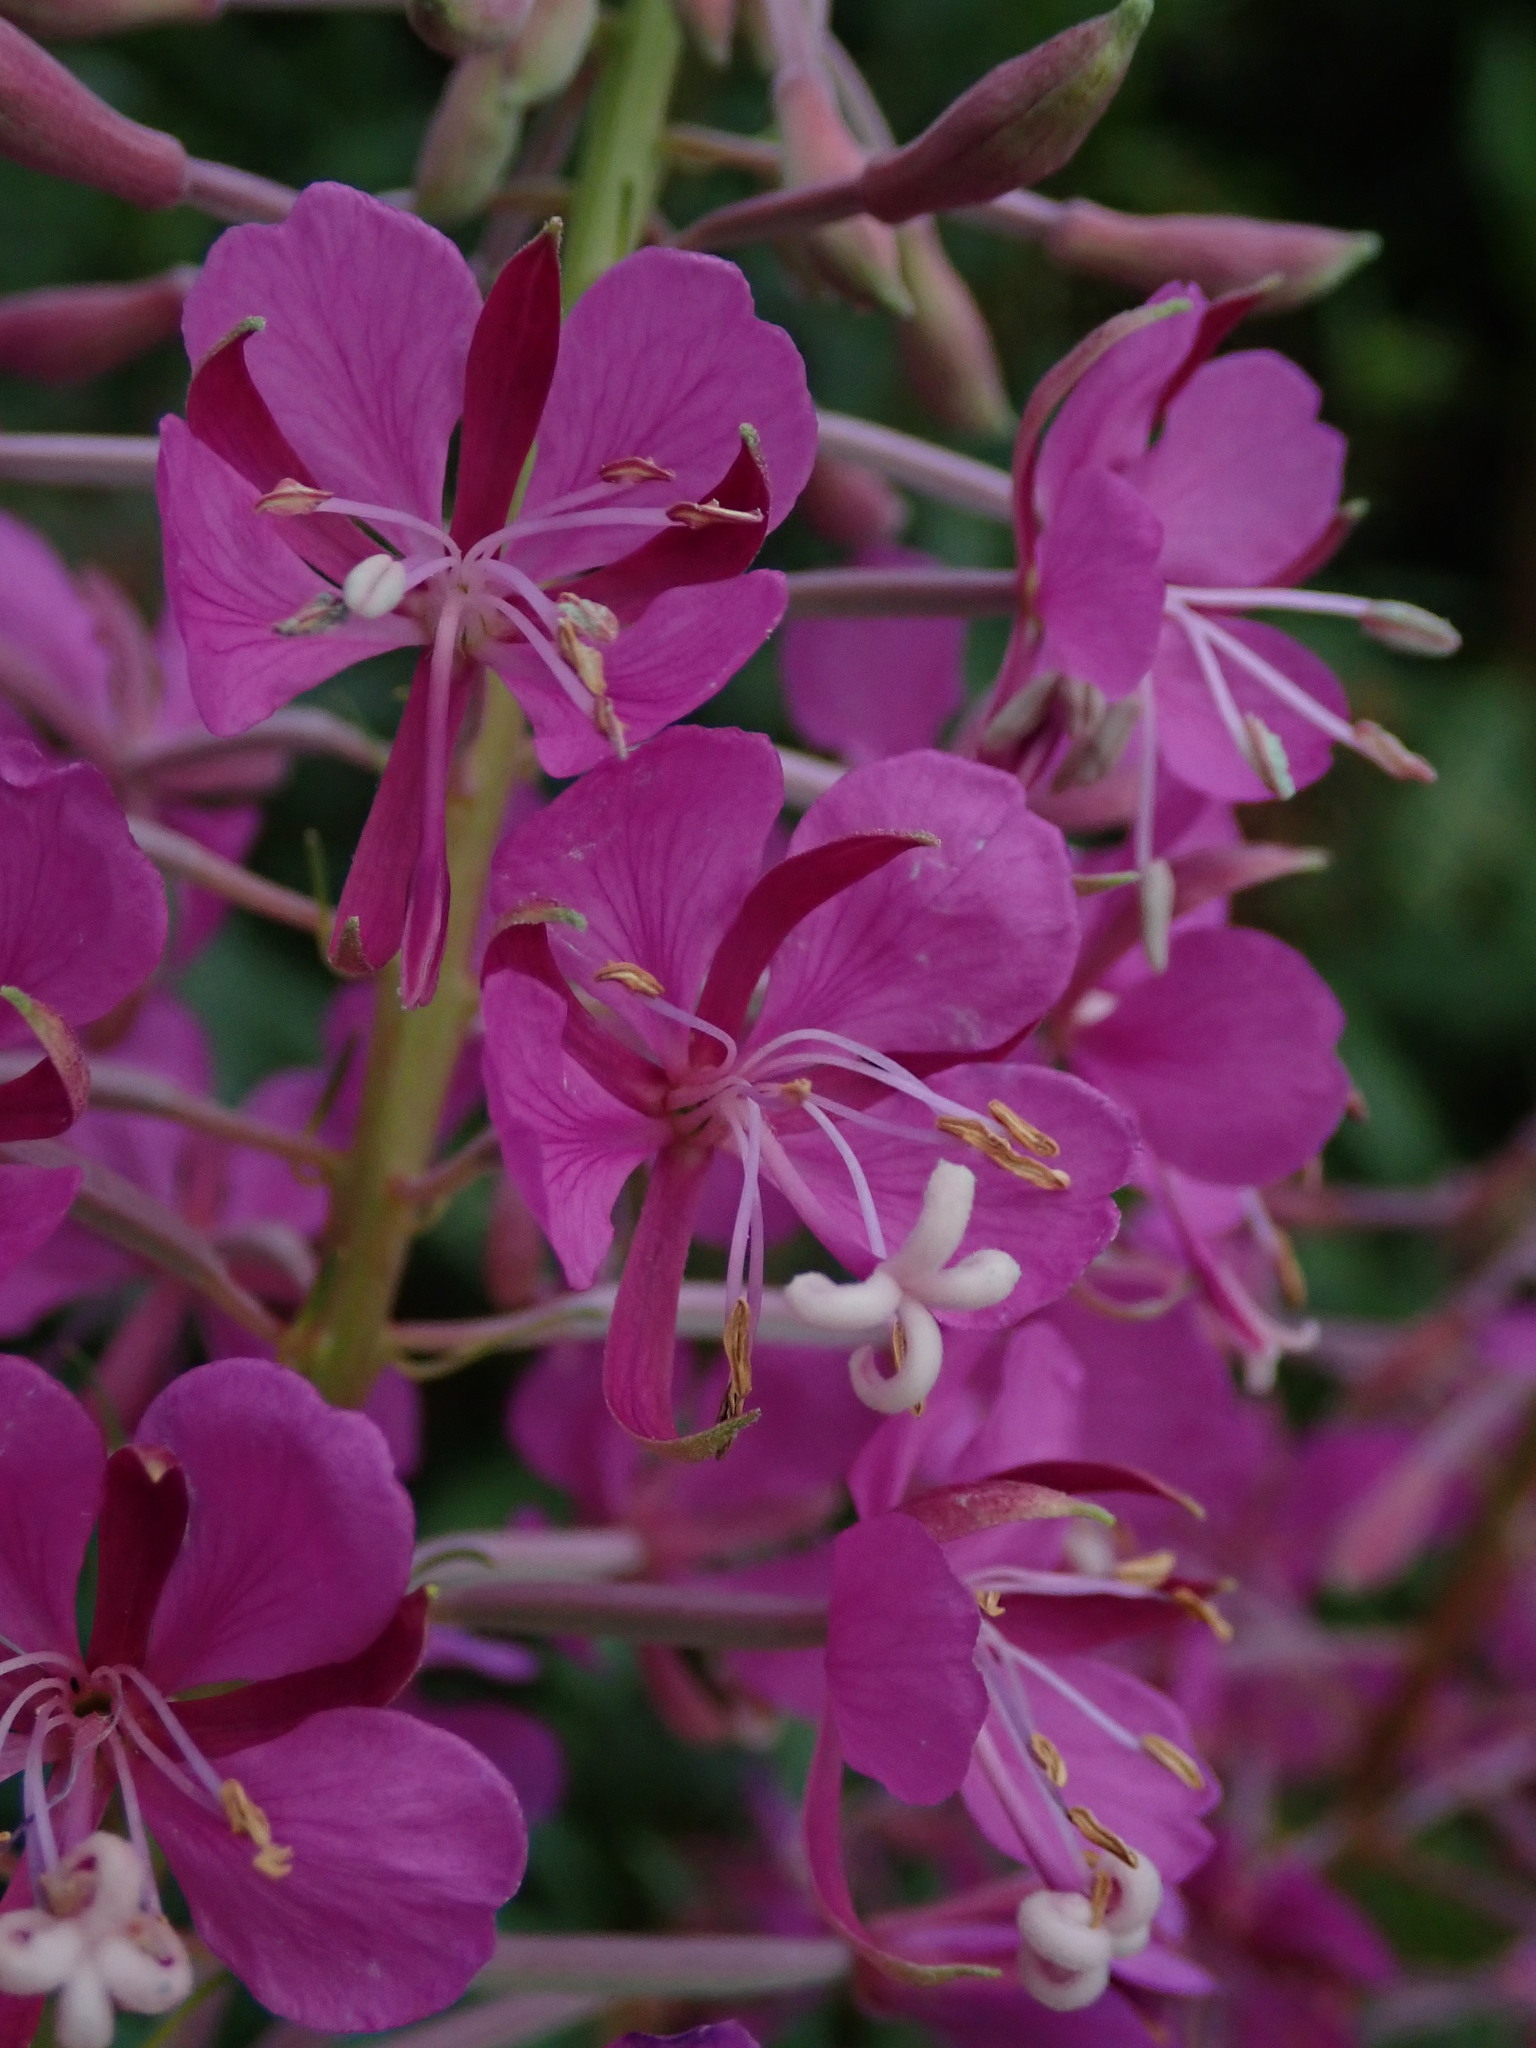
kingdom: Plantae
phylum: Tracheophyta
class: Magnoliopsida
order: Myrtales
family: Onagraceae
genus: Chamaenerion
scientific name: Chamaenerion angustifolium
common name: Fireweed
